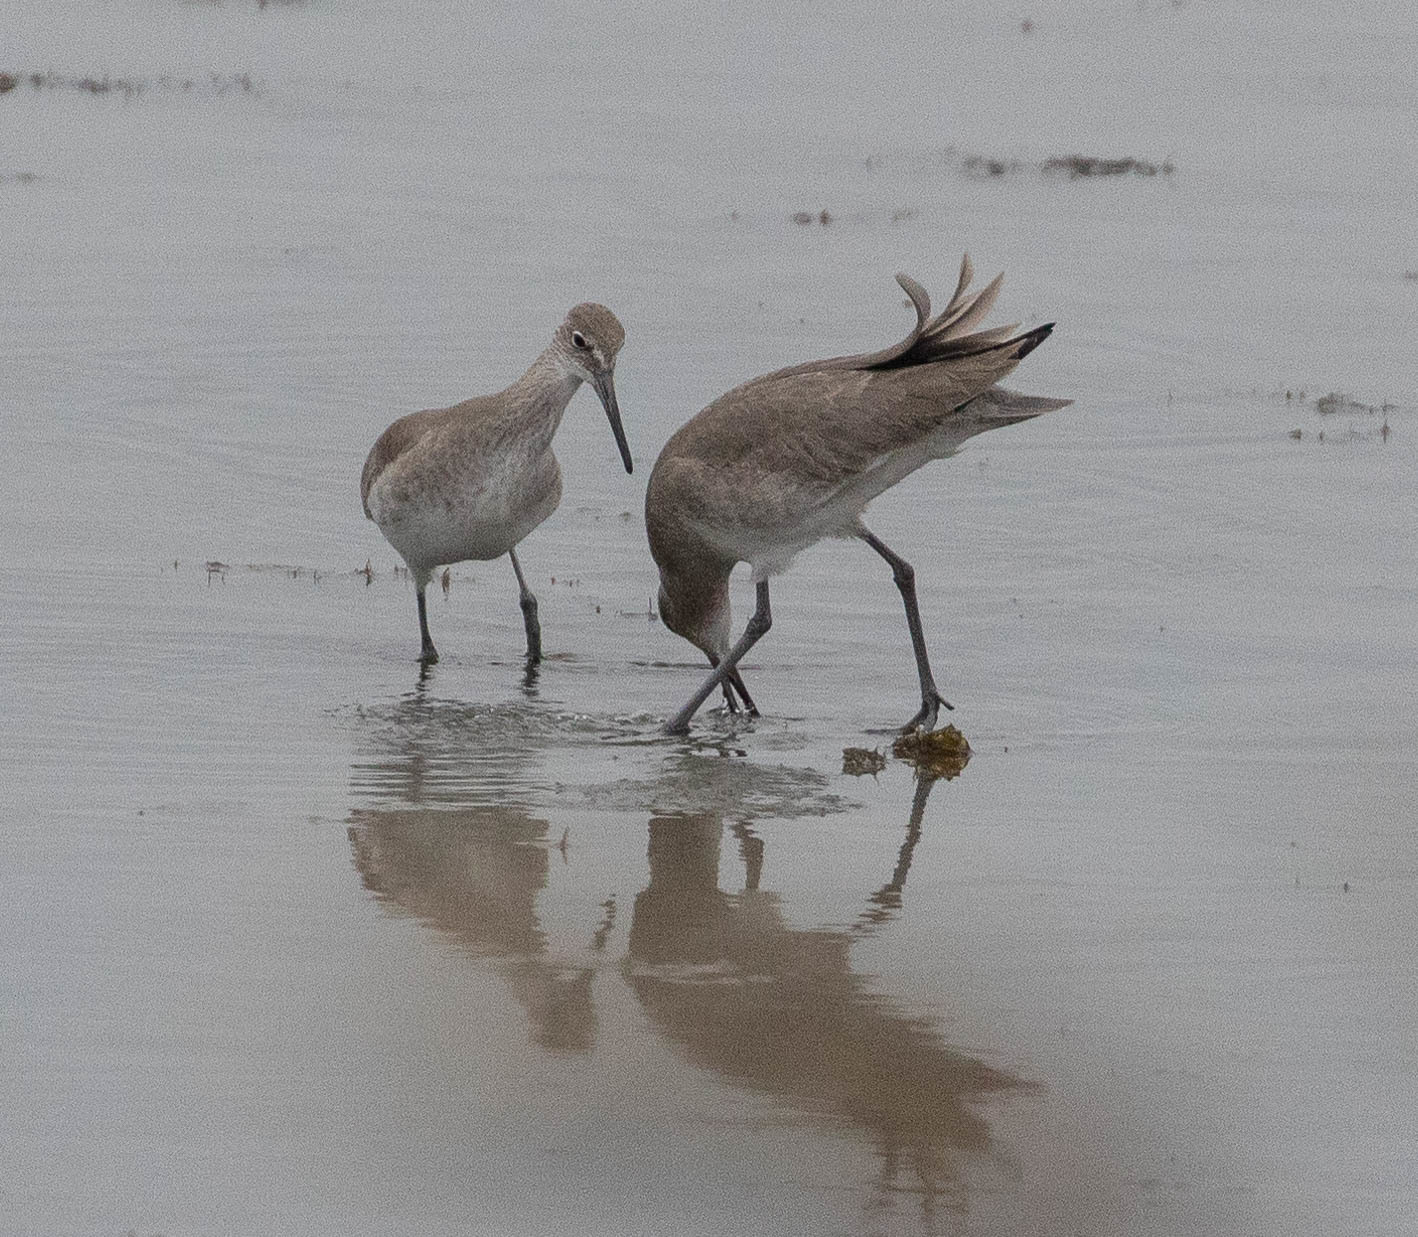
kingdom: Animalia
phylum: Chordata
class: Aves
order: Charadriiformes
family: Scolopacidae
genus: Tringa
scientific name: Tringa semipalmata
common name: Willet
